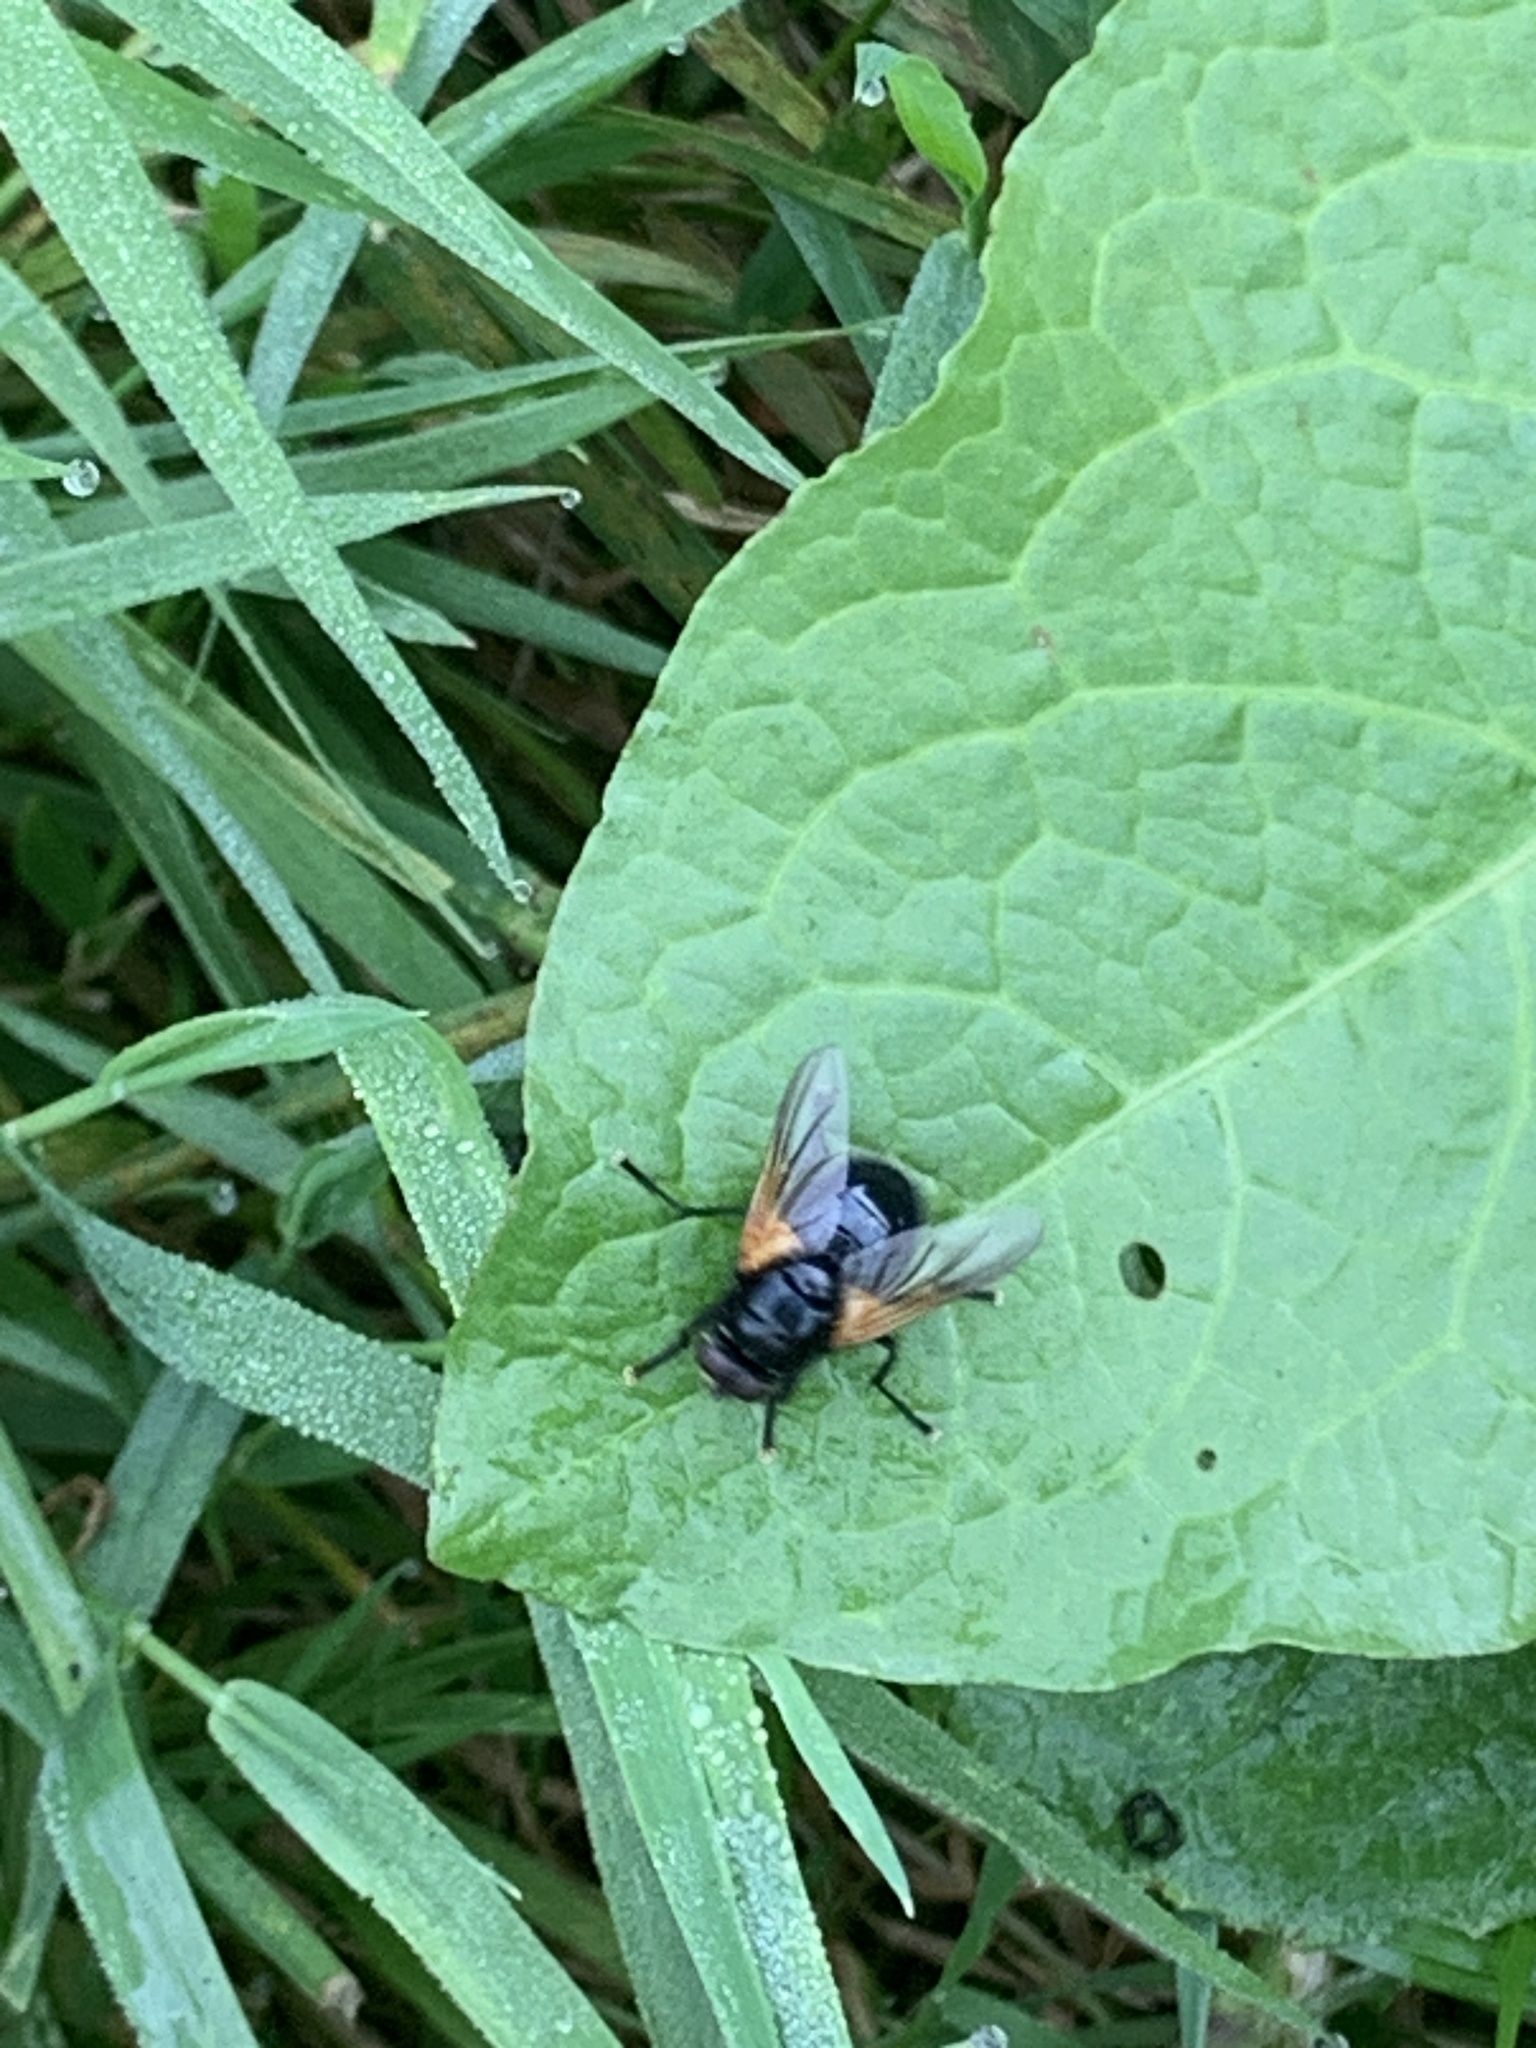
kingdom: Animalia
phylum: Arthropoda
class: Insecta
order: Diptera
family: Muscidae
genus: Mesembrina
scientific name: Mesembrina meridiana
